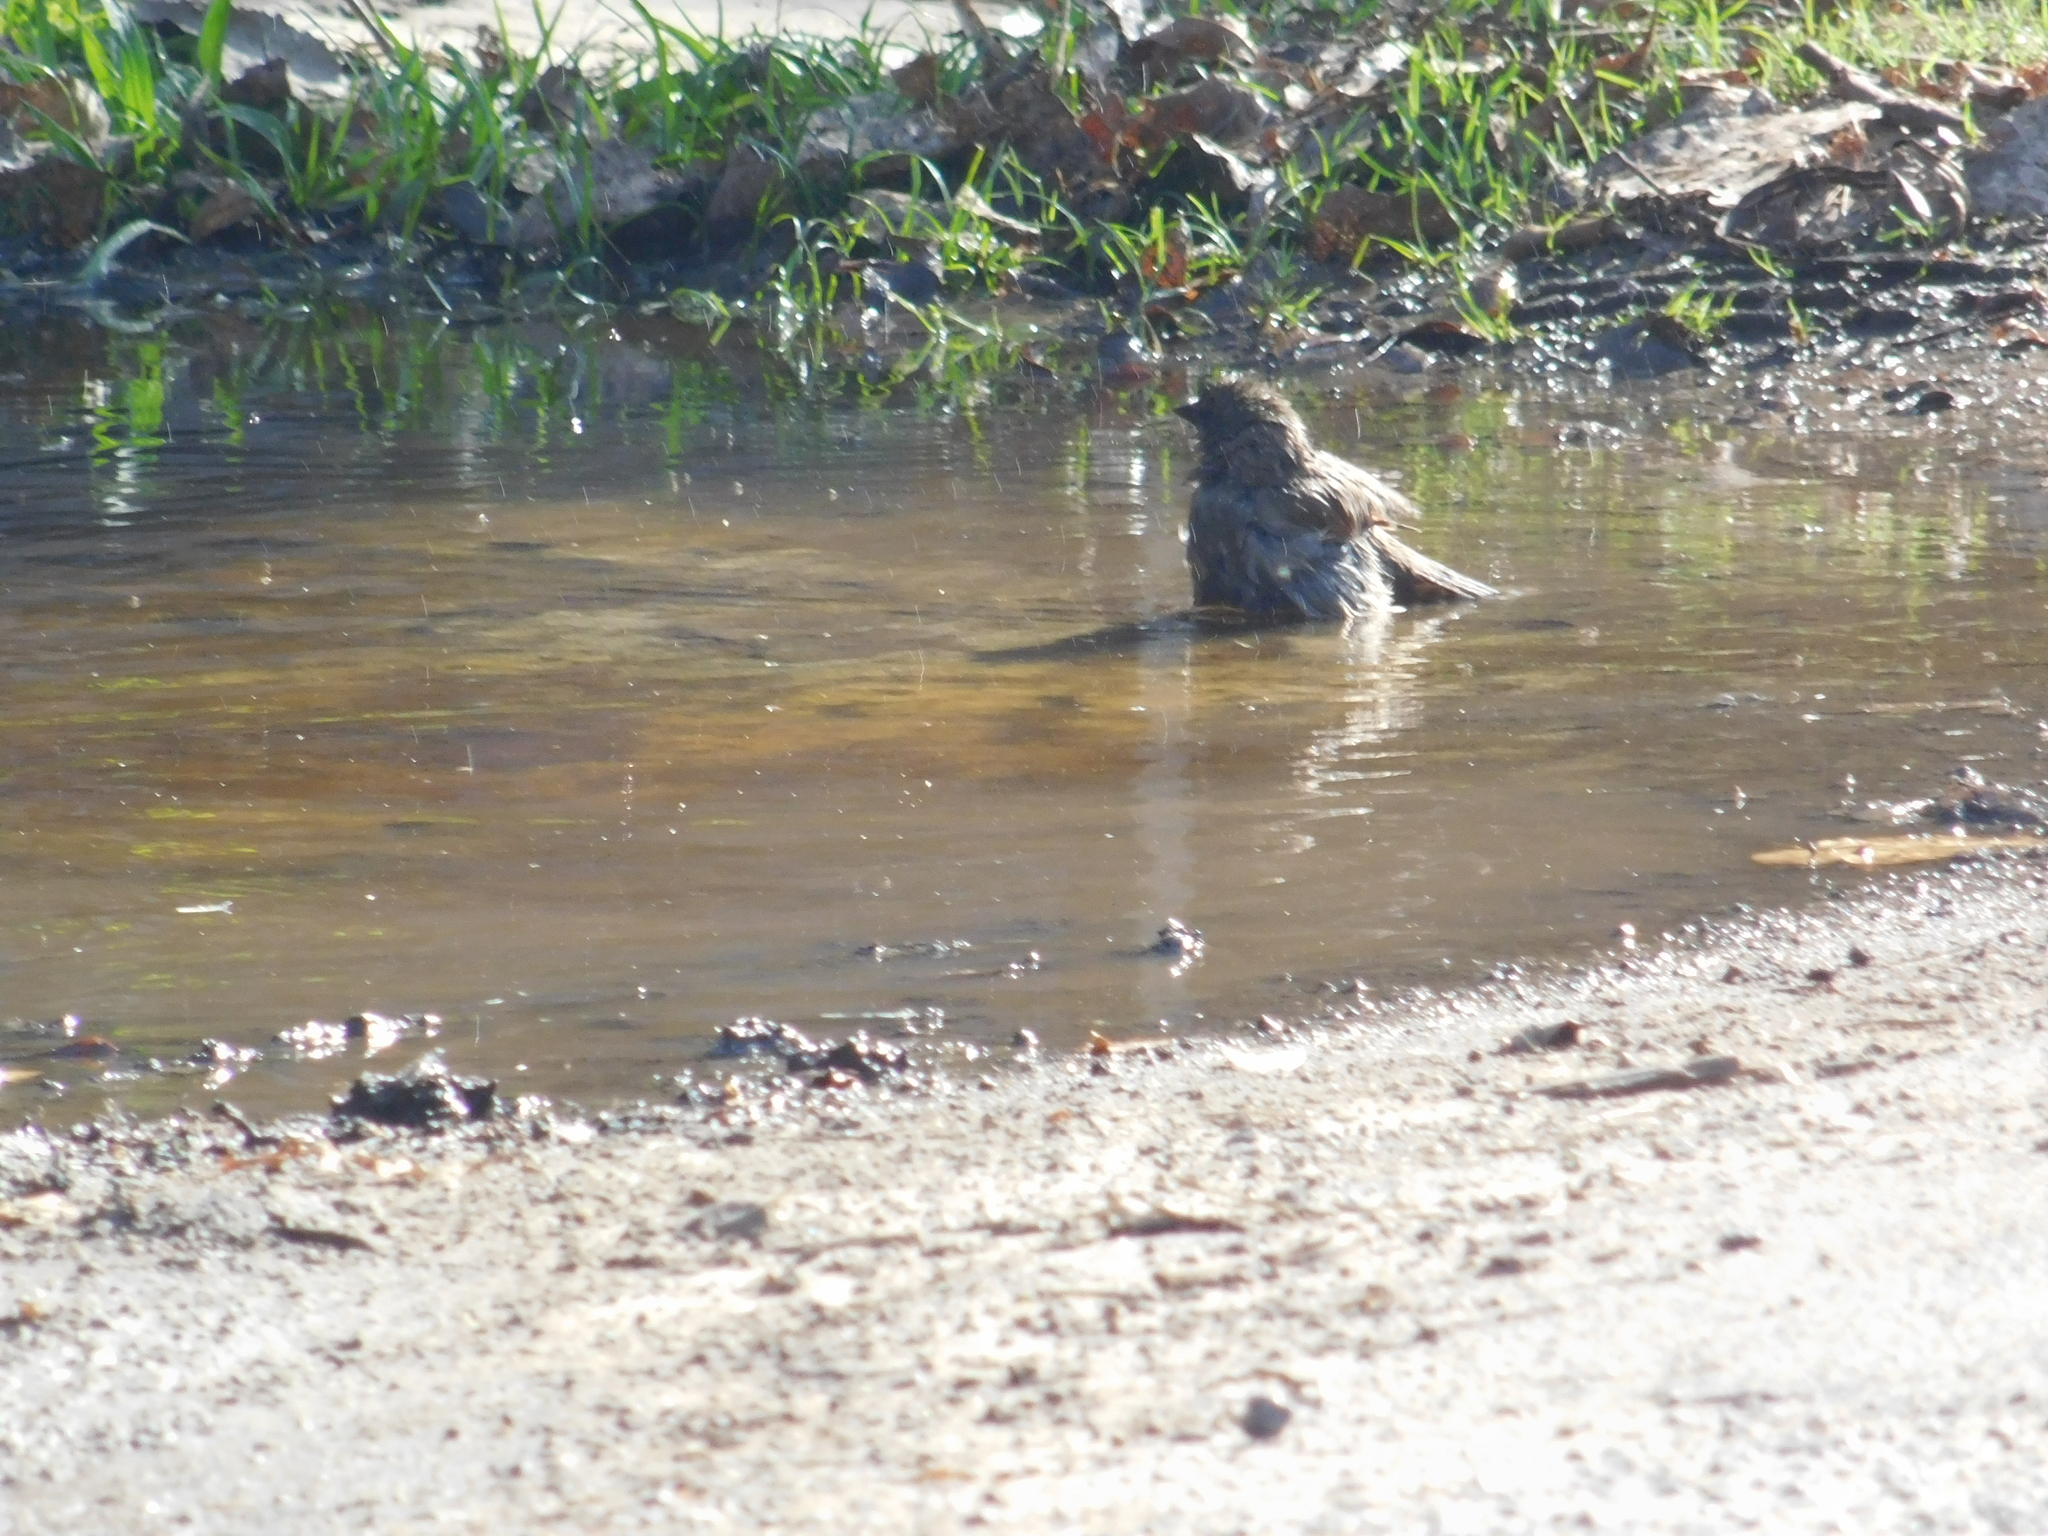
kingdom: Animalia
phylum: Chordata
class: Aves
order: Passeriformes
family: Icteridae
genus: Agelaioides
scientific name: Agelaioides badius
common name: Baywing
